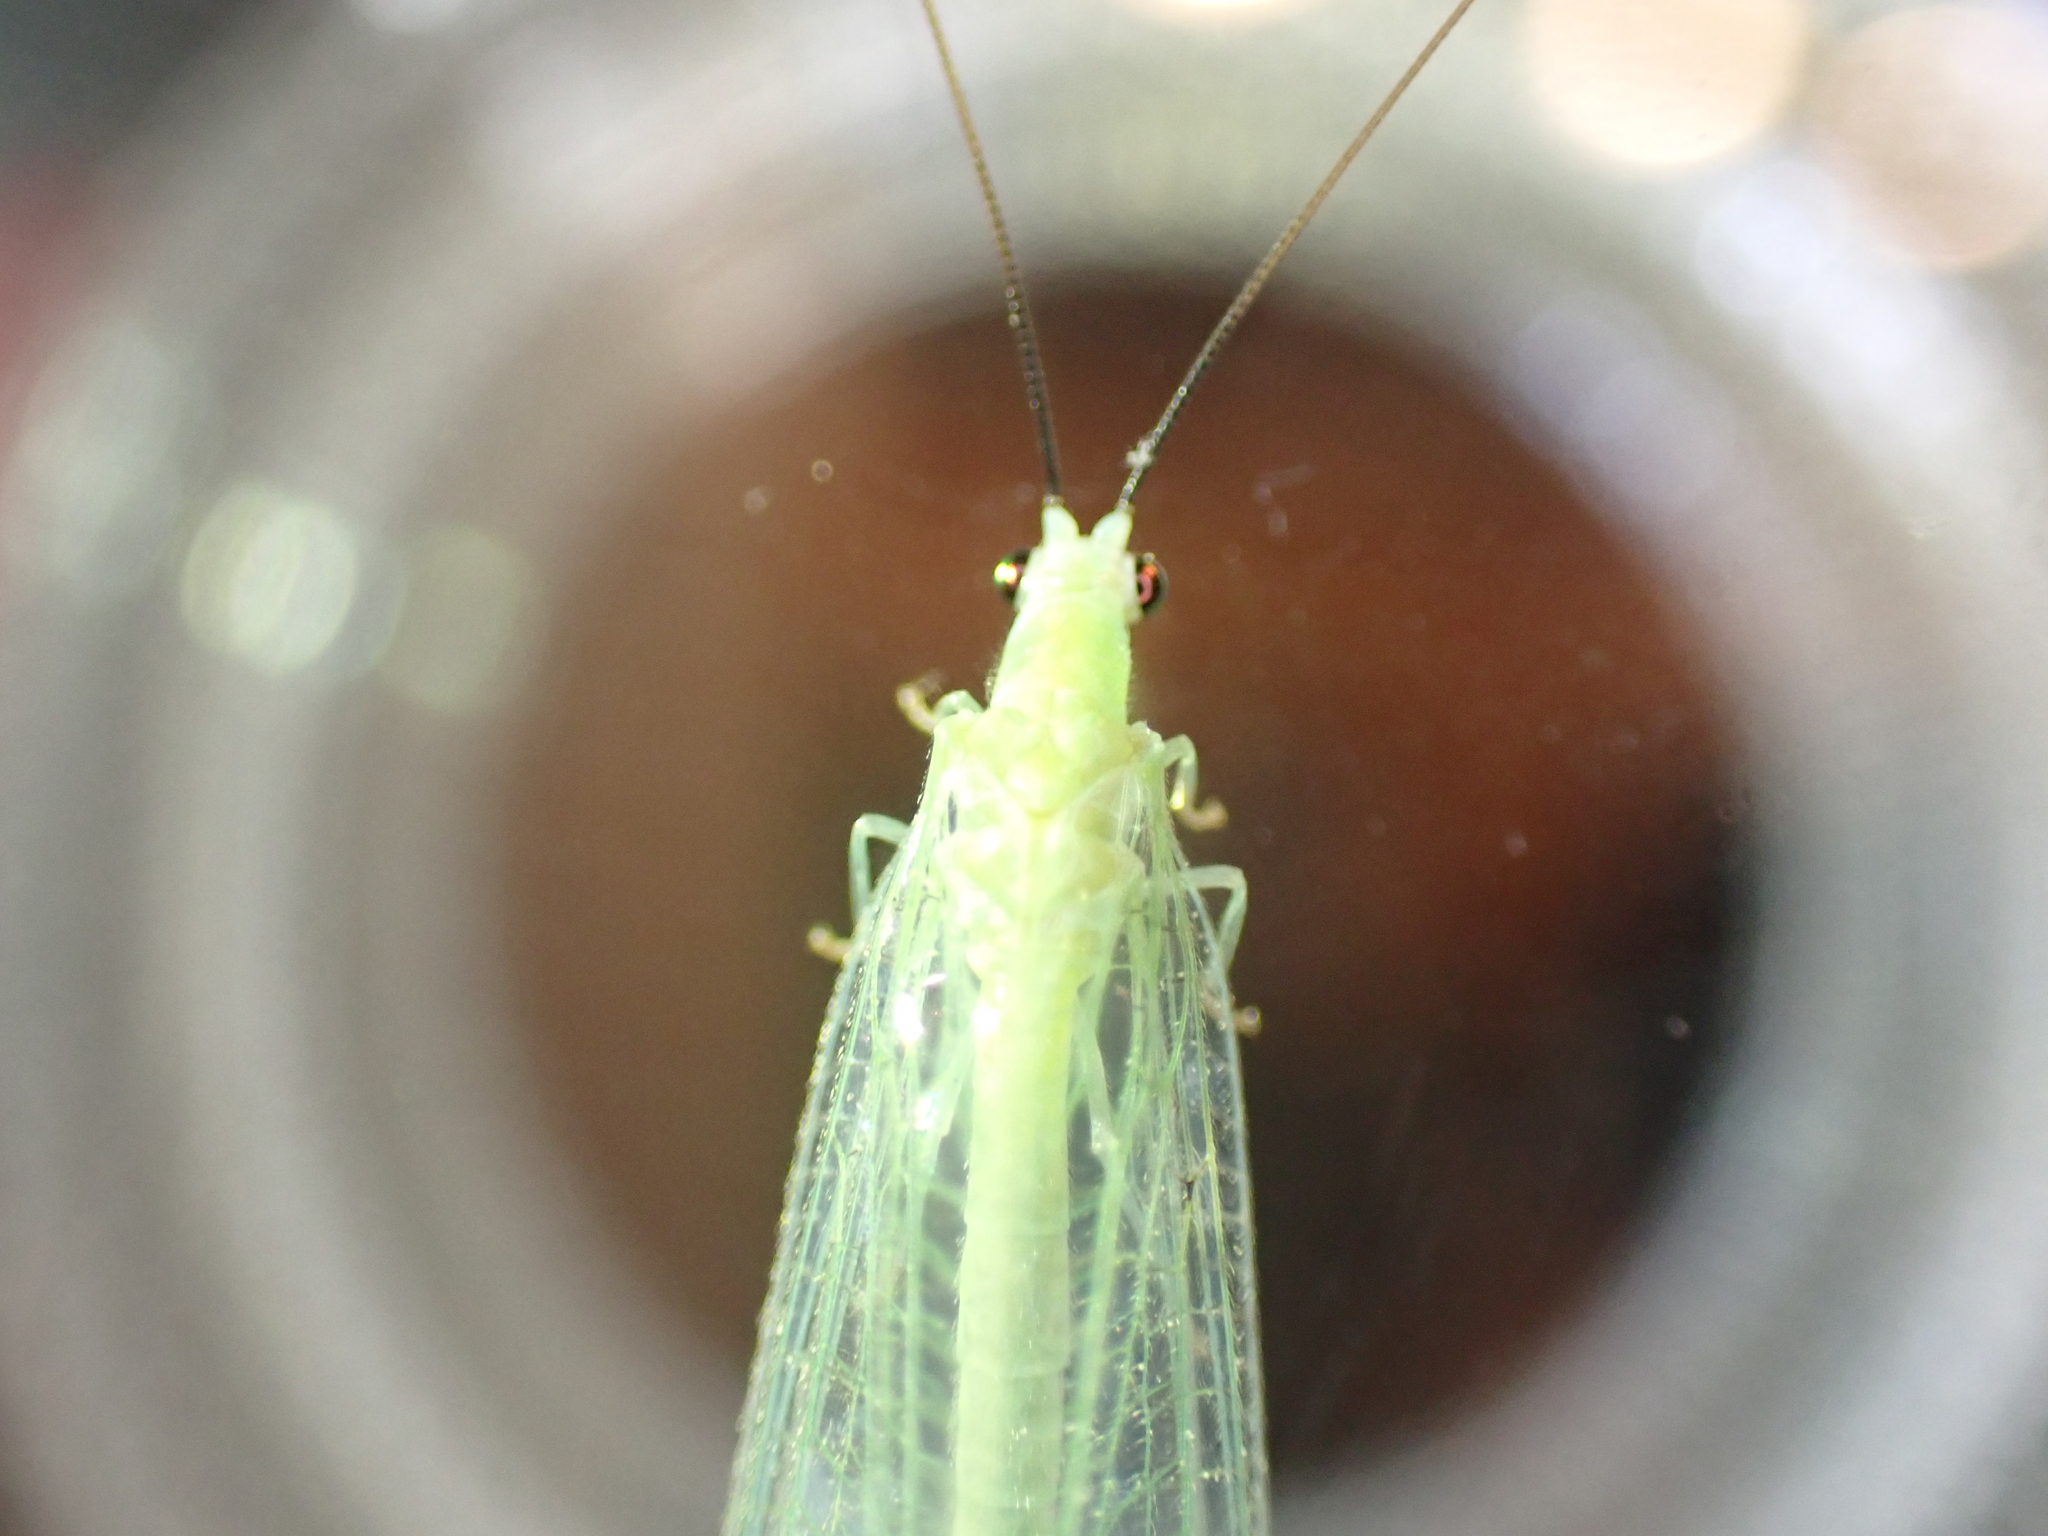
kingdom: Animalia
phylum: Arthropoda
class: Insecta
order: Neuroptera
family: Chrysopidae
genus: Chrysopa
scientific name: Chrysopa nigricornis
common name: Black-horned green lacewing
